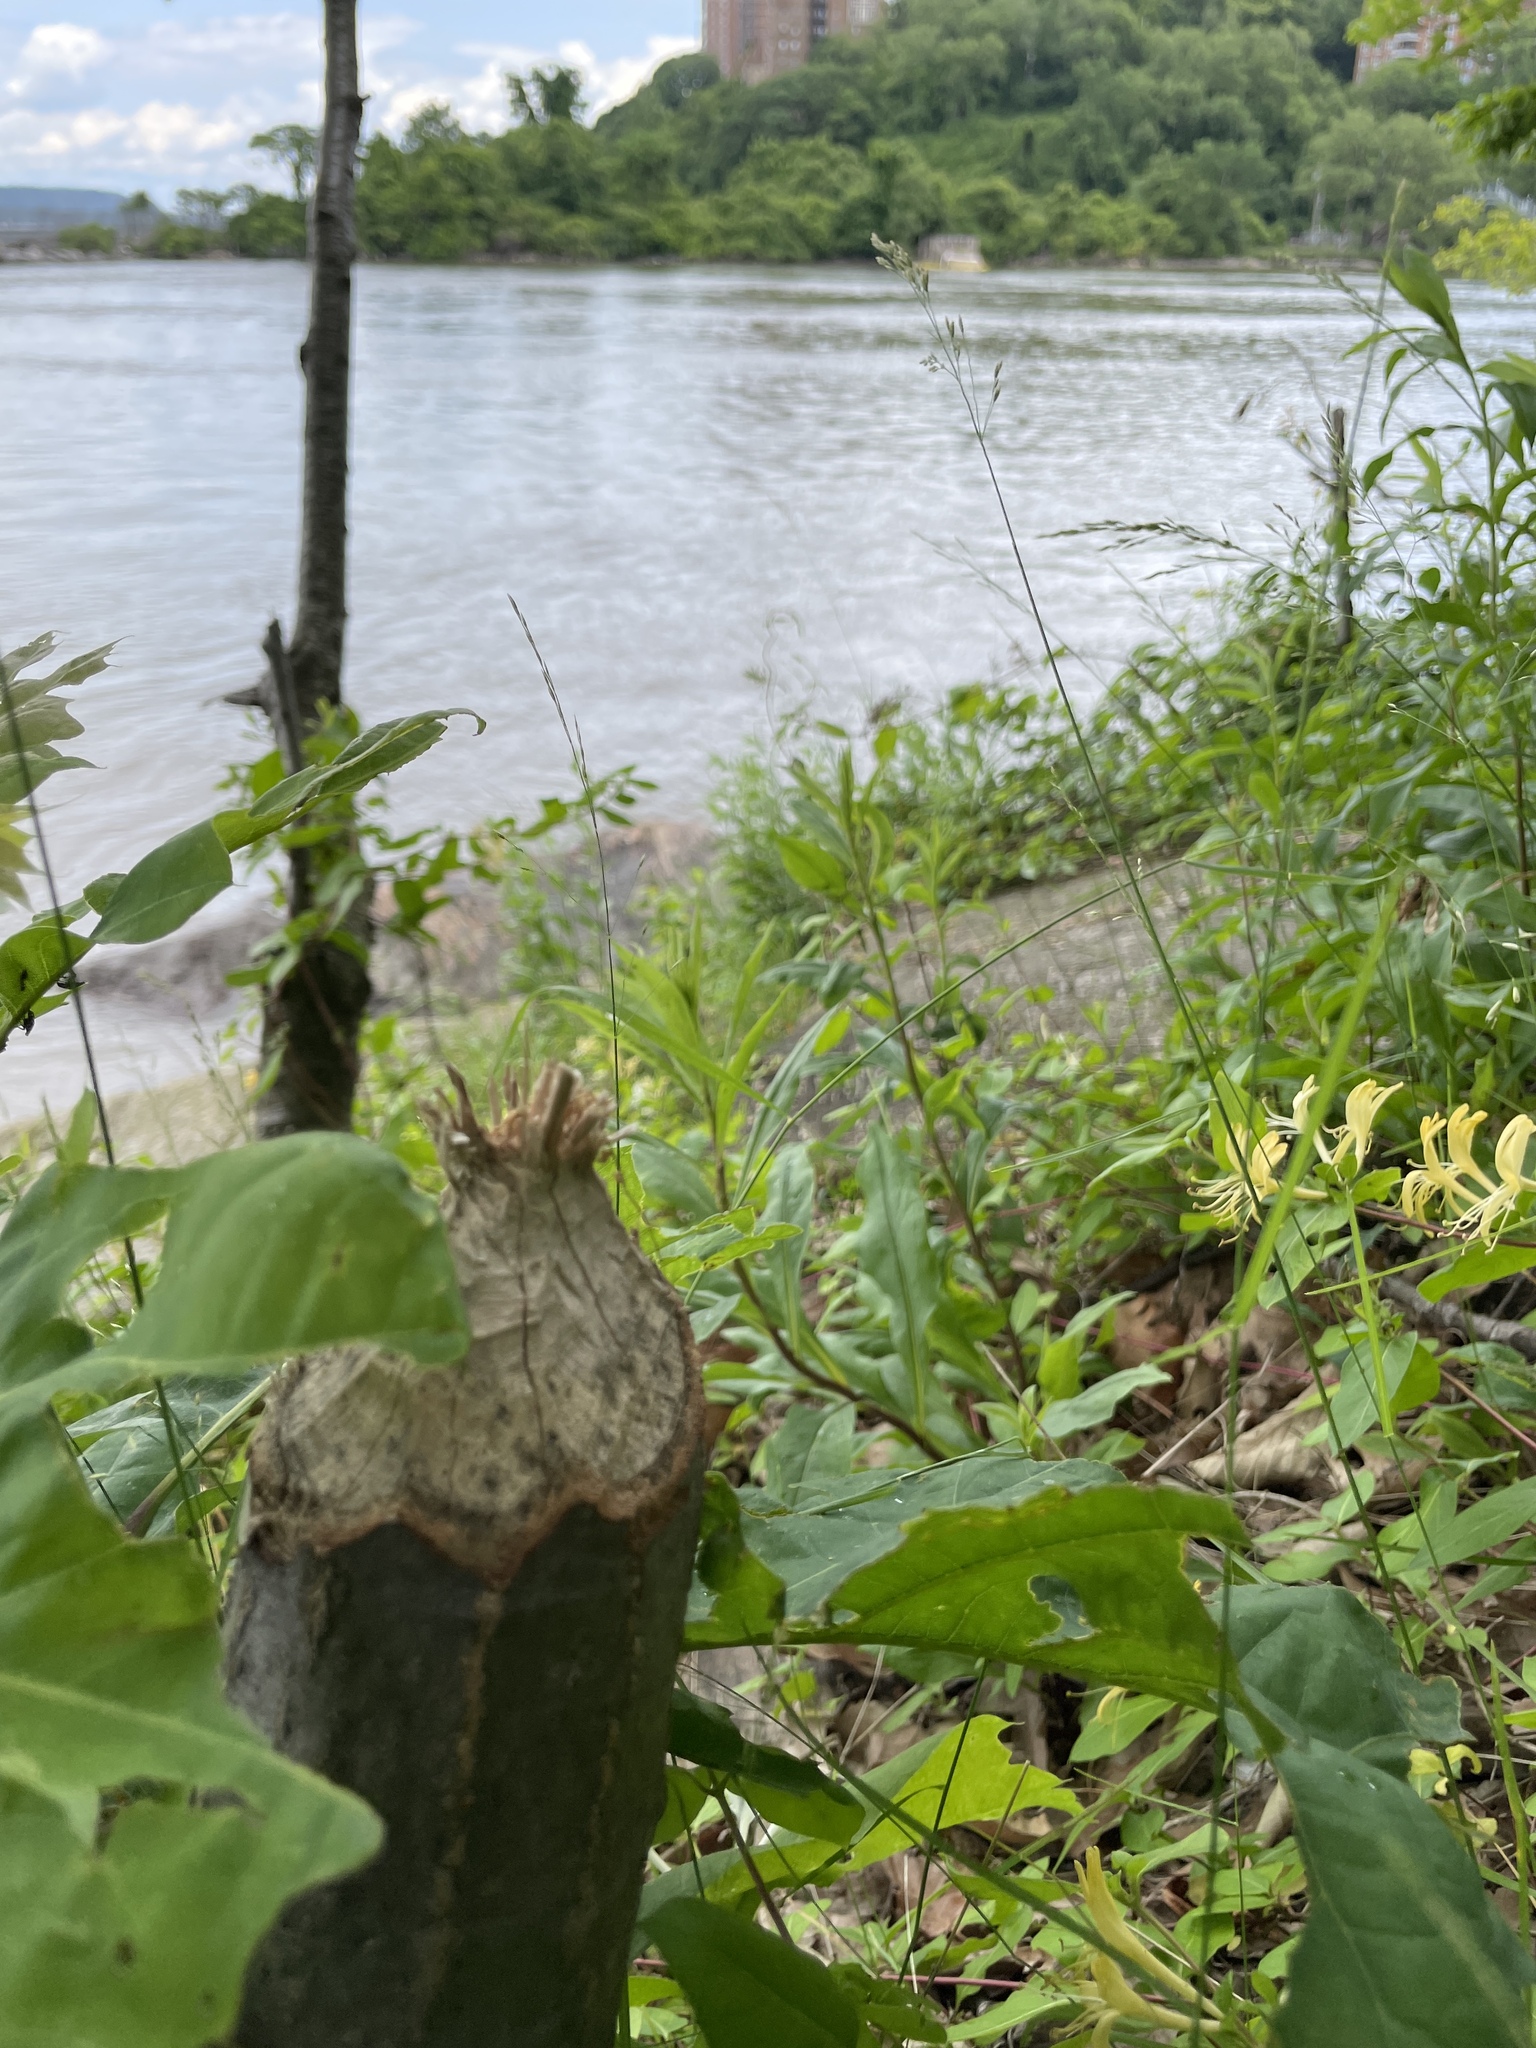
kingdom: Animalia
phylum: Chordata
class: Mammalia
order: Rodentia
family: Castoridae
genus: Castor
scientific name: Castor canadensis
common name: American beaver
